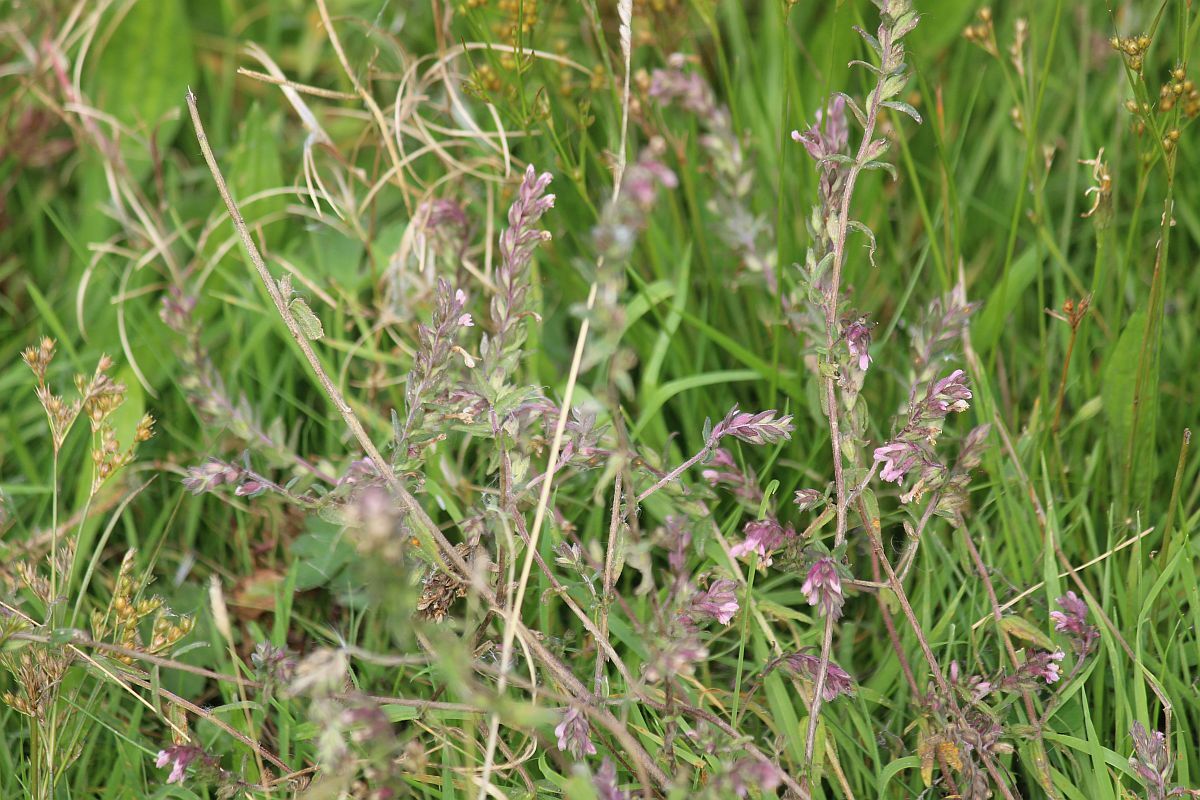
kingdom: Plantae
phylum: Tracheophyta
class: Magnoliopsida
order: Lamiales
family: Orobanchaceae
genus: Odontites
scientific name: Odontites vulgaris
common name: Broomrape
